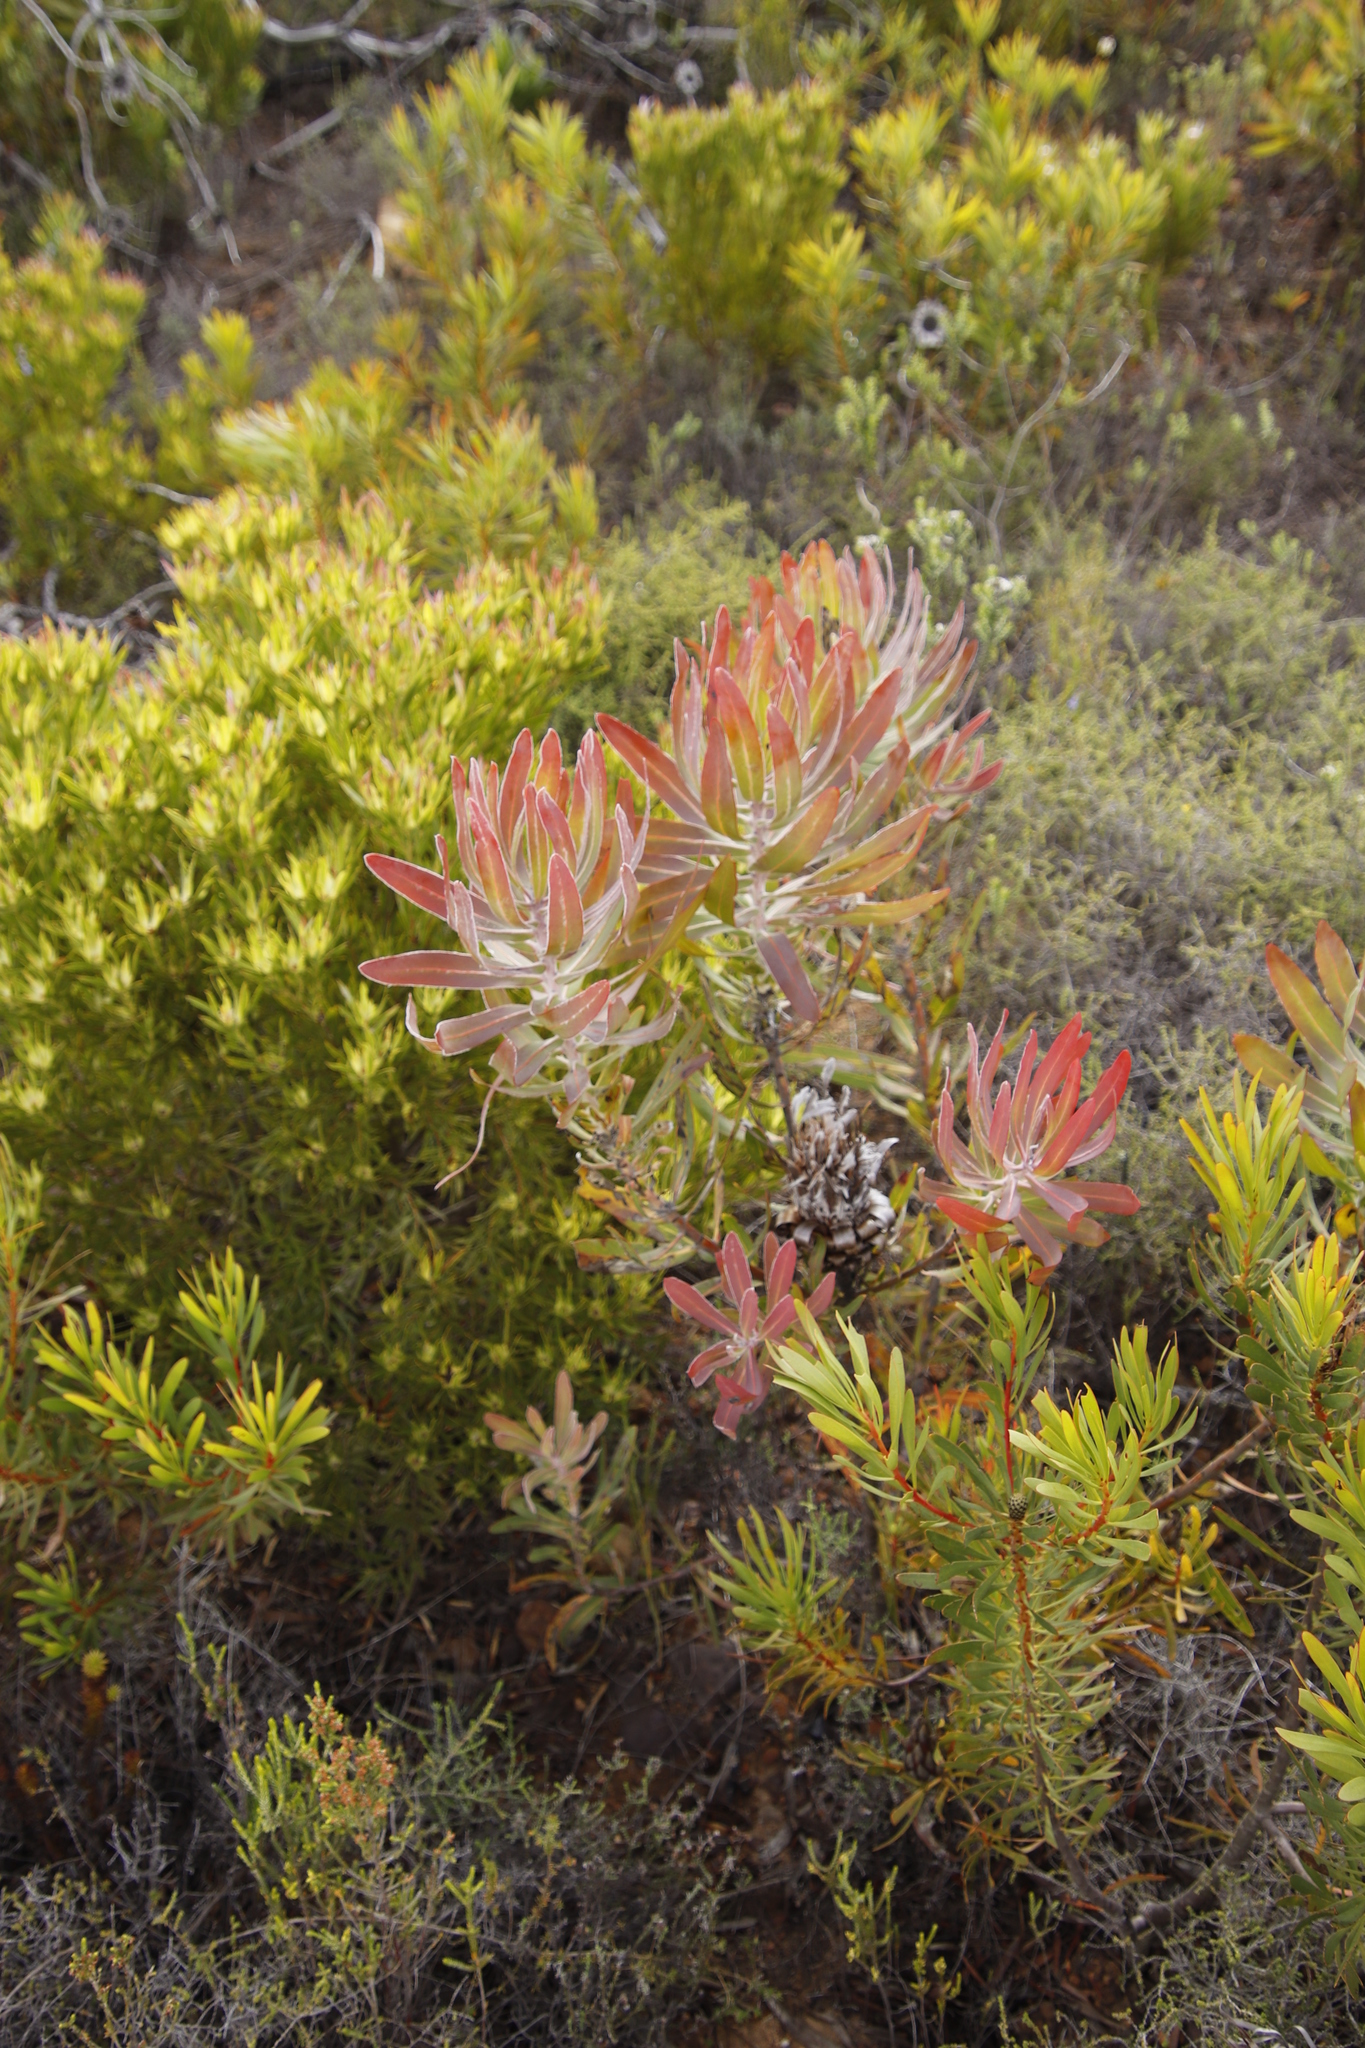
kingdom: Plantae
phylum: Tracheophyta
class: Magnoliopsida
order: Proteales
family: Proteaceae
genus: Protea
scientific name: Protea
